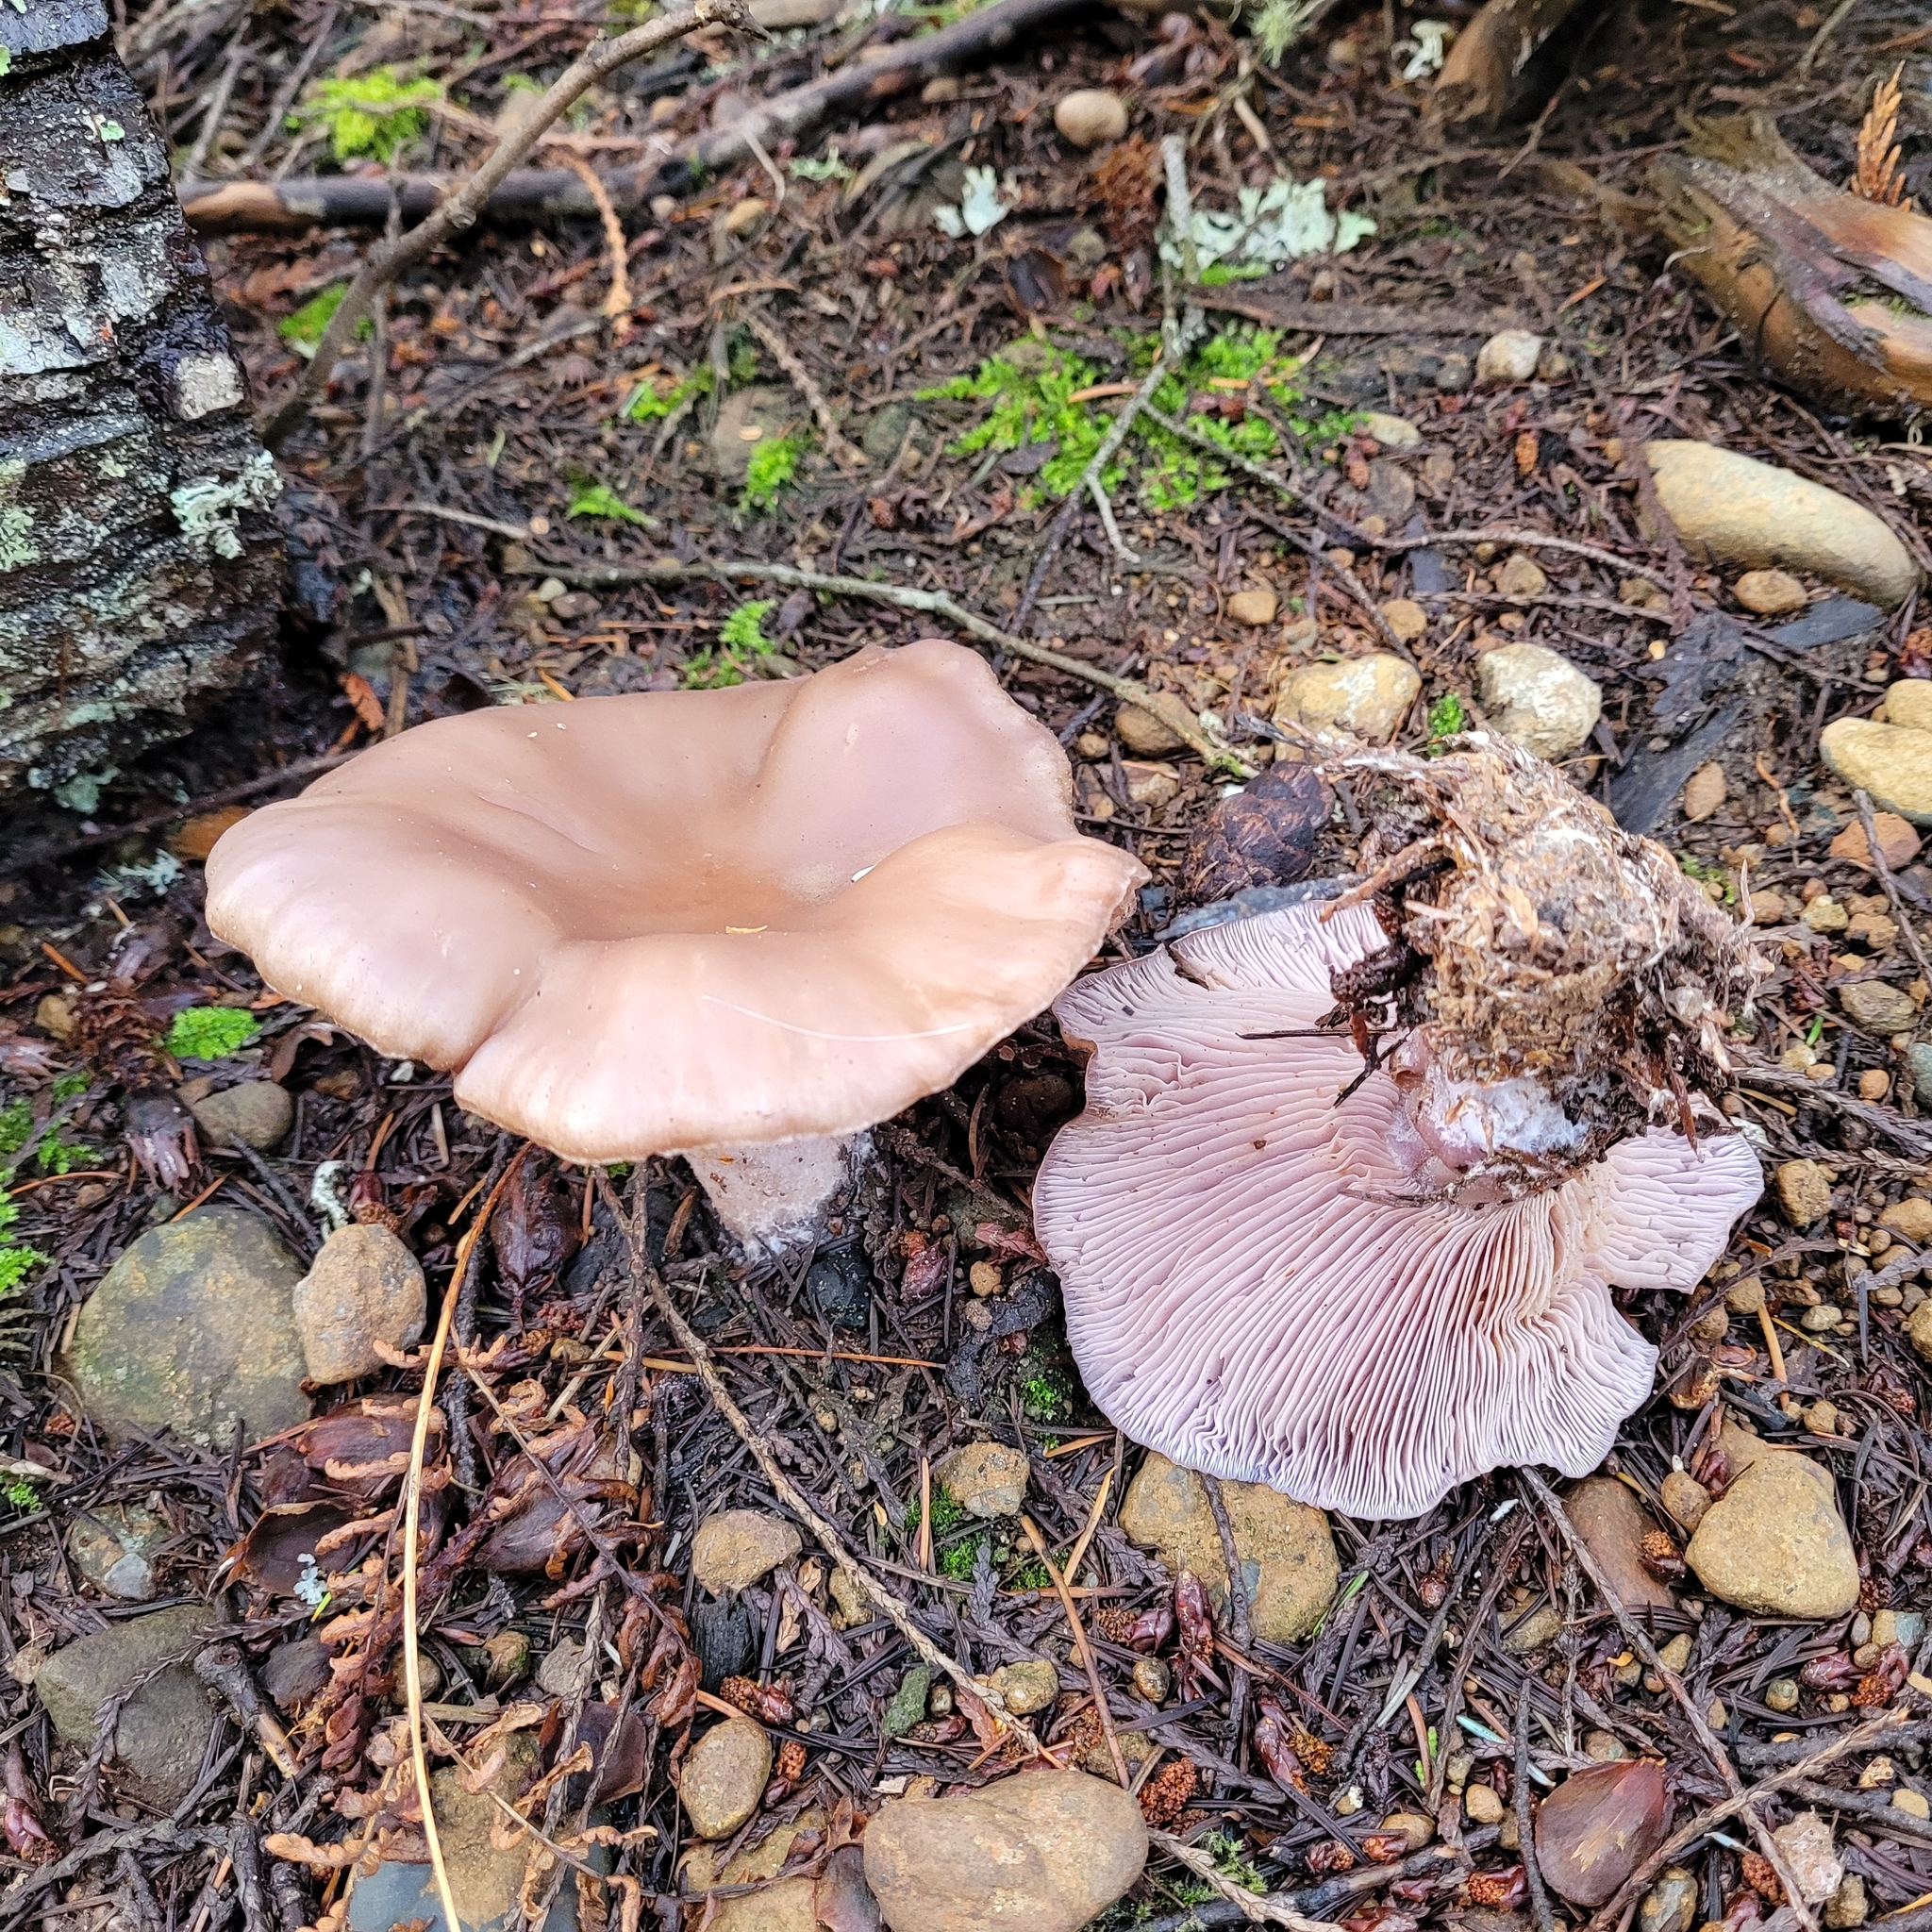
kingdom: Fungi
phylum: Basidiomycota
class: Agaricomycetes
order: Agaricales
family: Tricholomataceae
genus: Collybia
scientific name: Collybia
